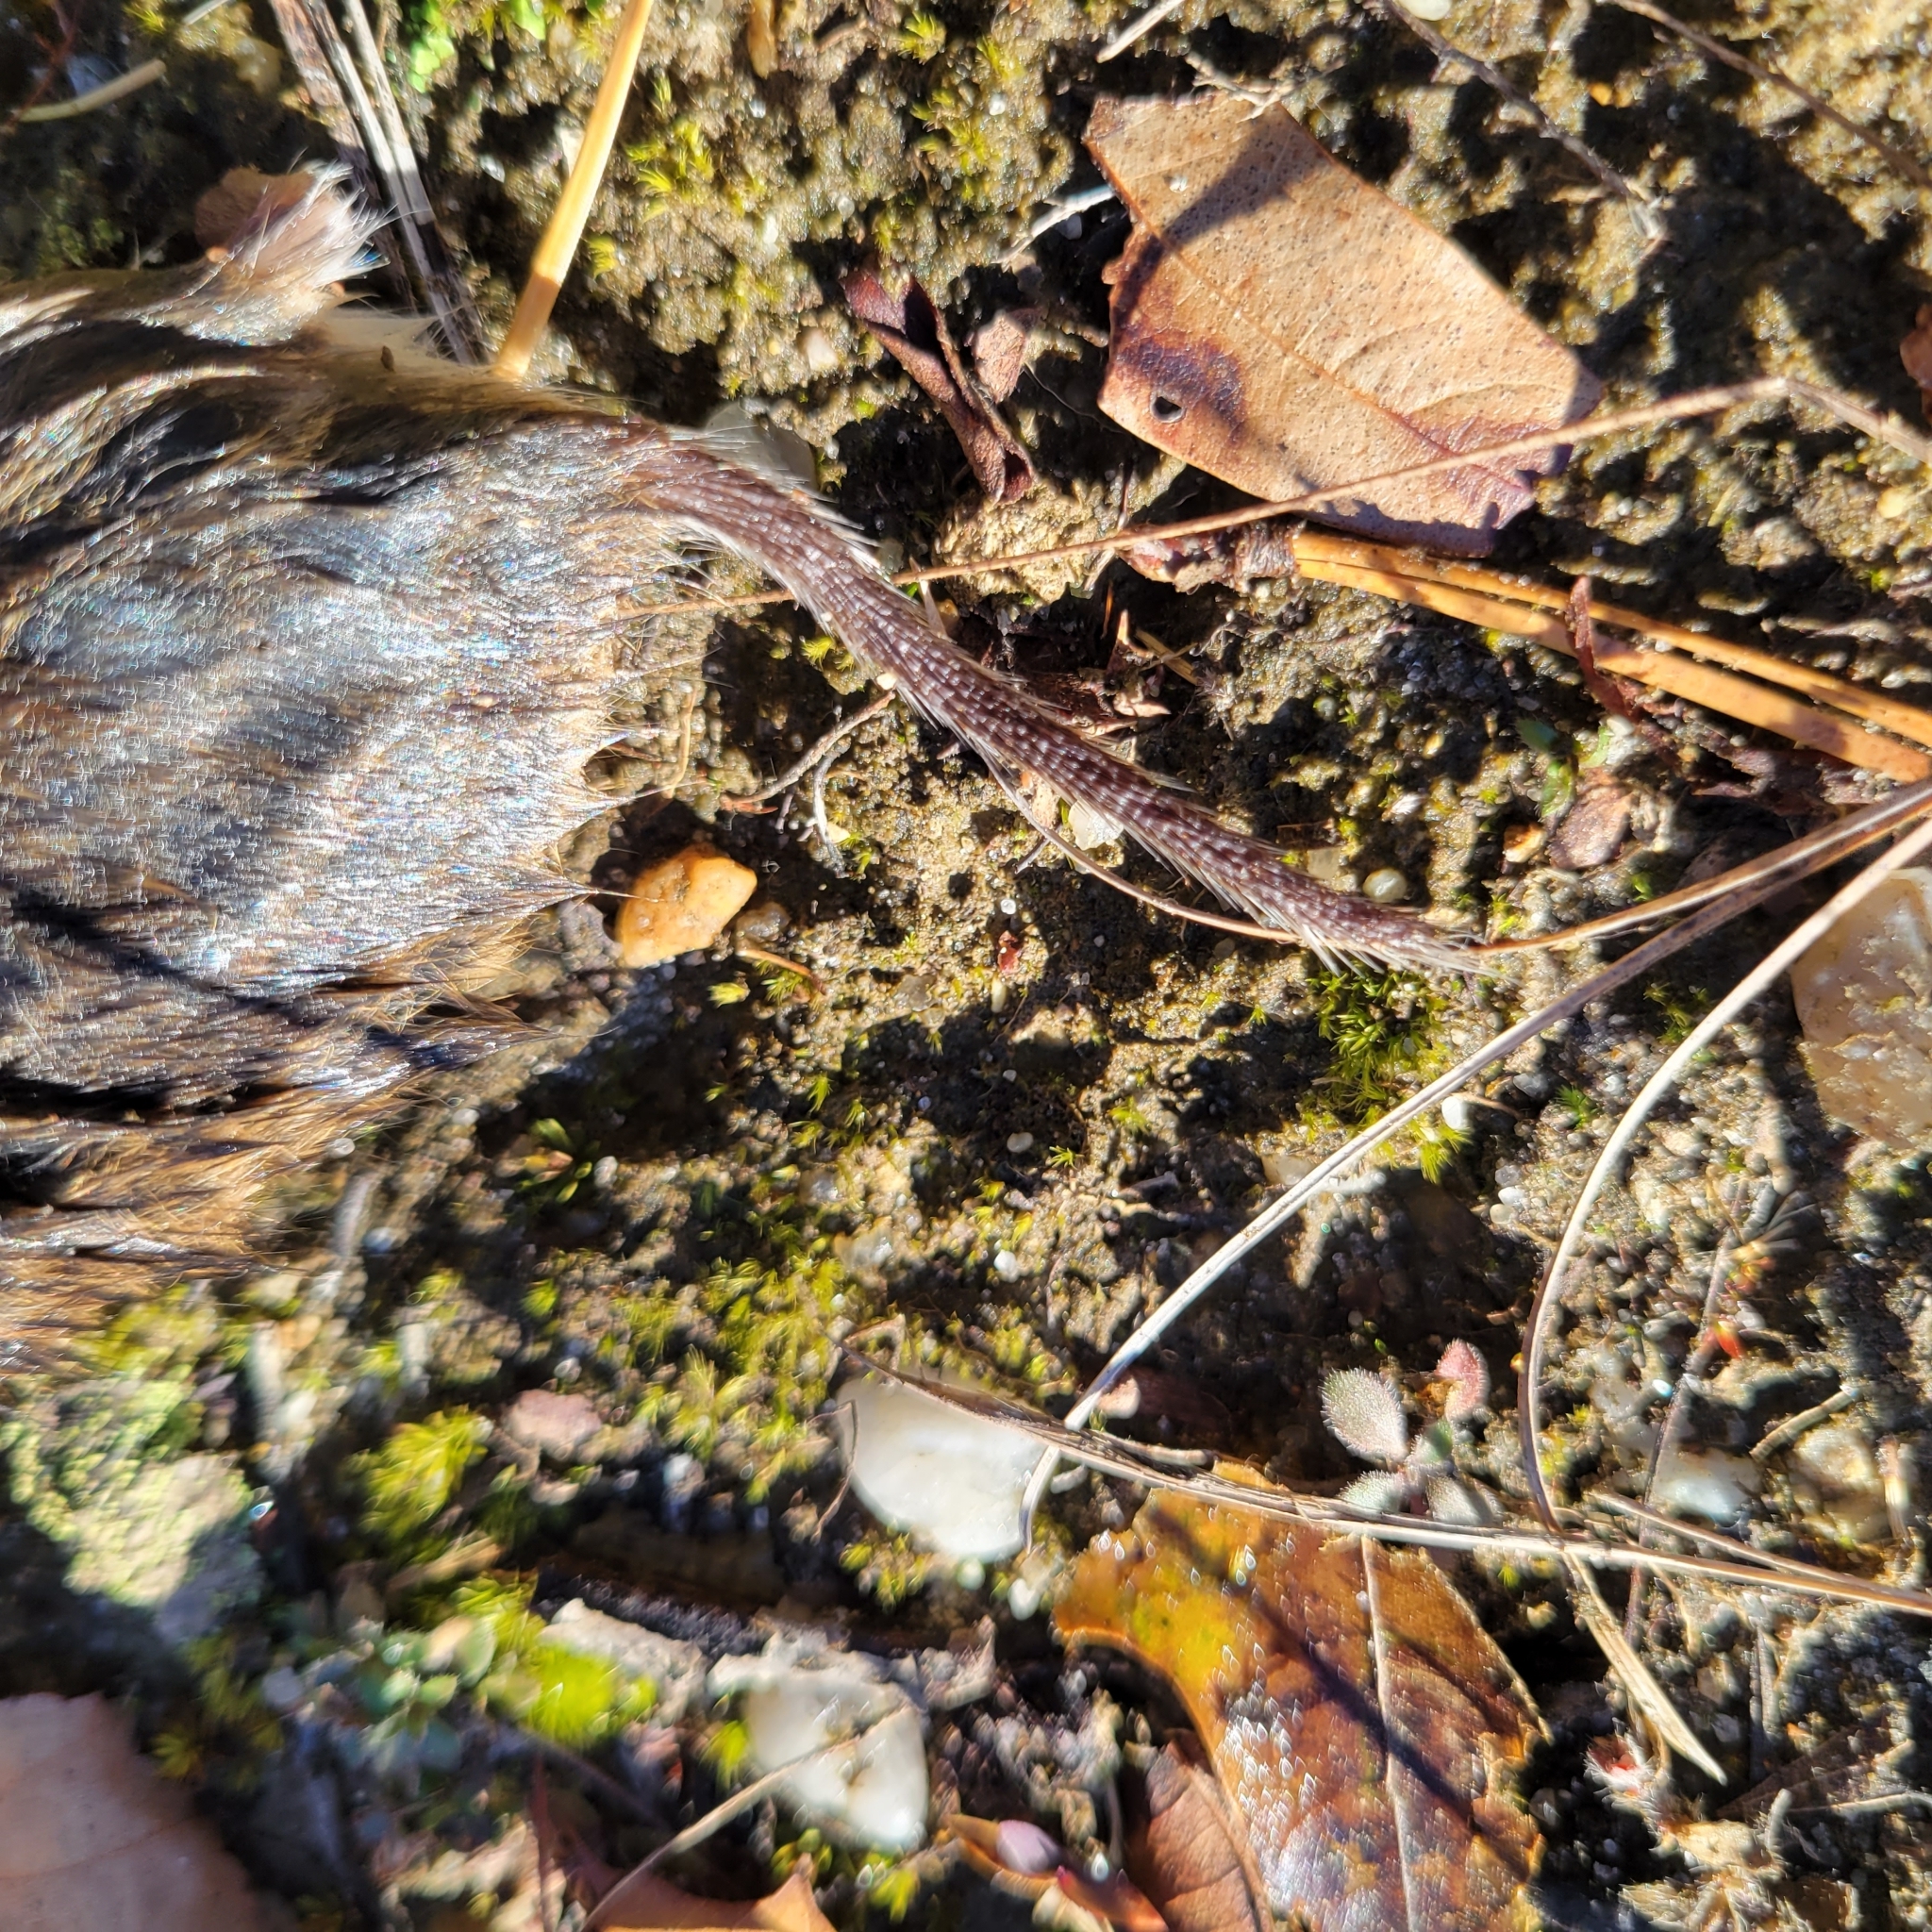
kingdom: Animalia
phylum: Chordata
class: Mammalia
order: Rodentia
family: Cricetidae
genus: Microtus
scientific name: Microtus pennsylvanicus
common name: Meadow vole
